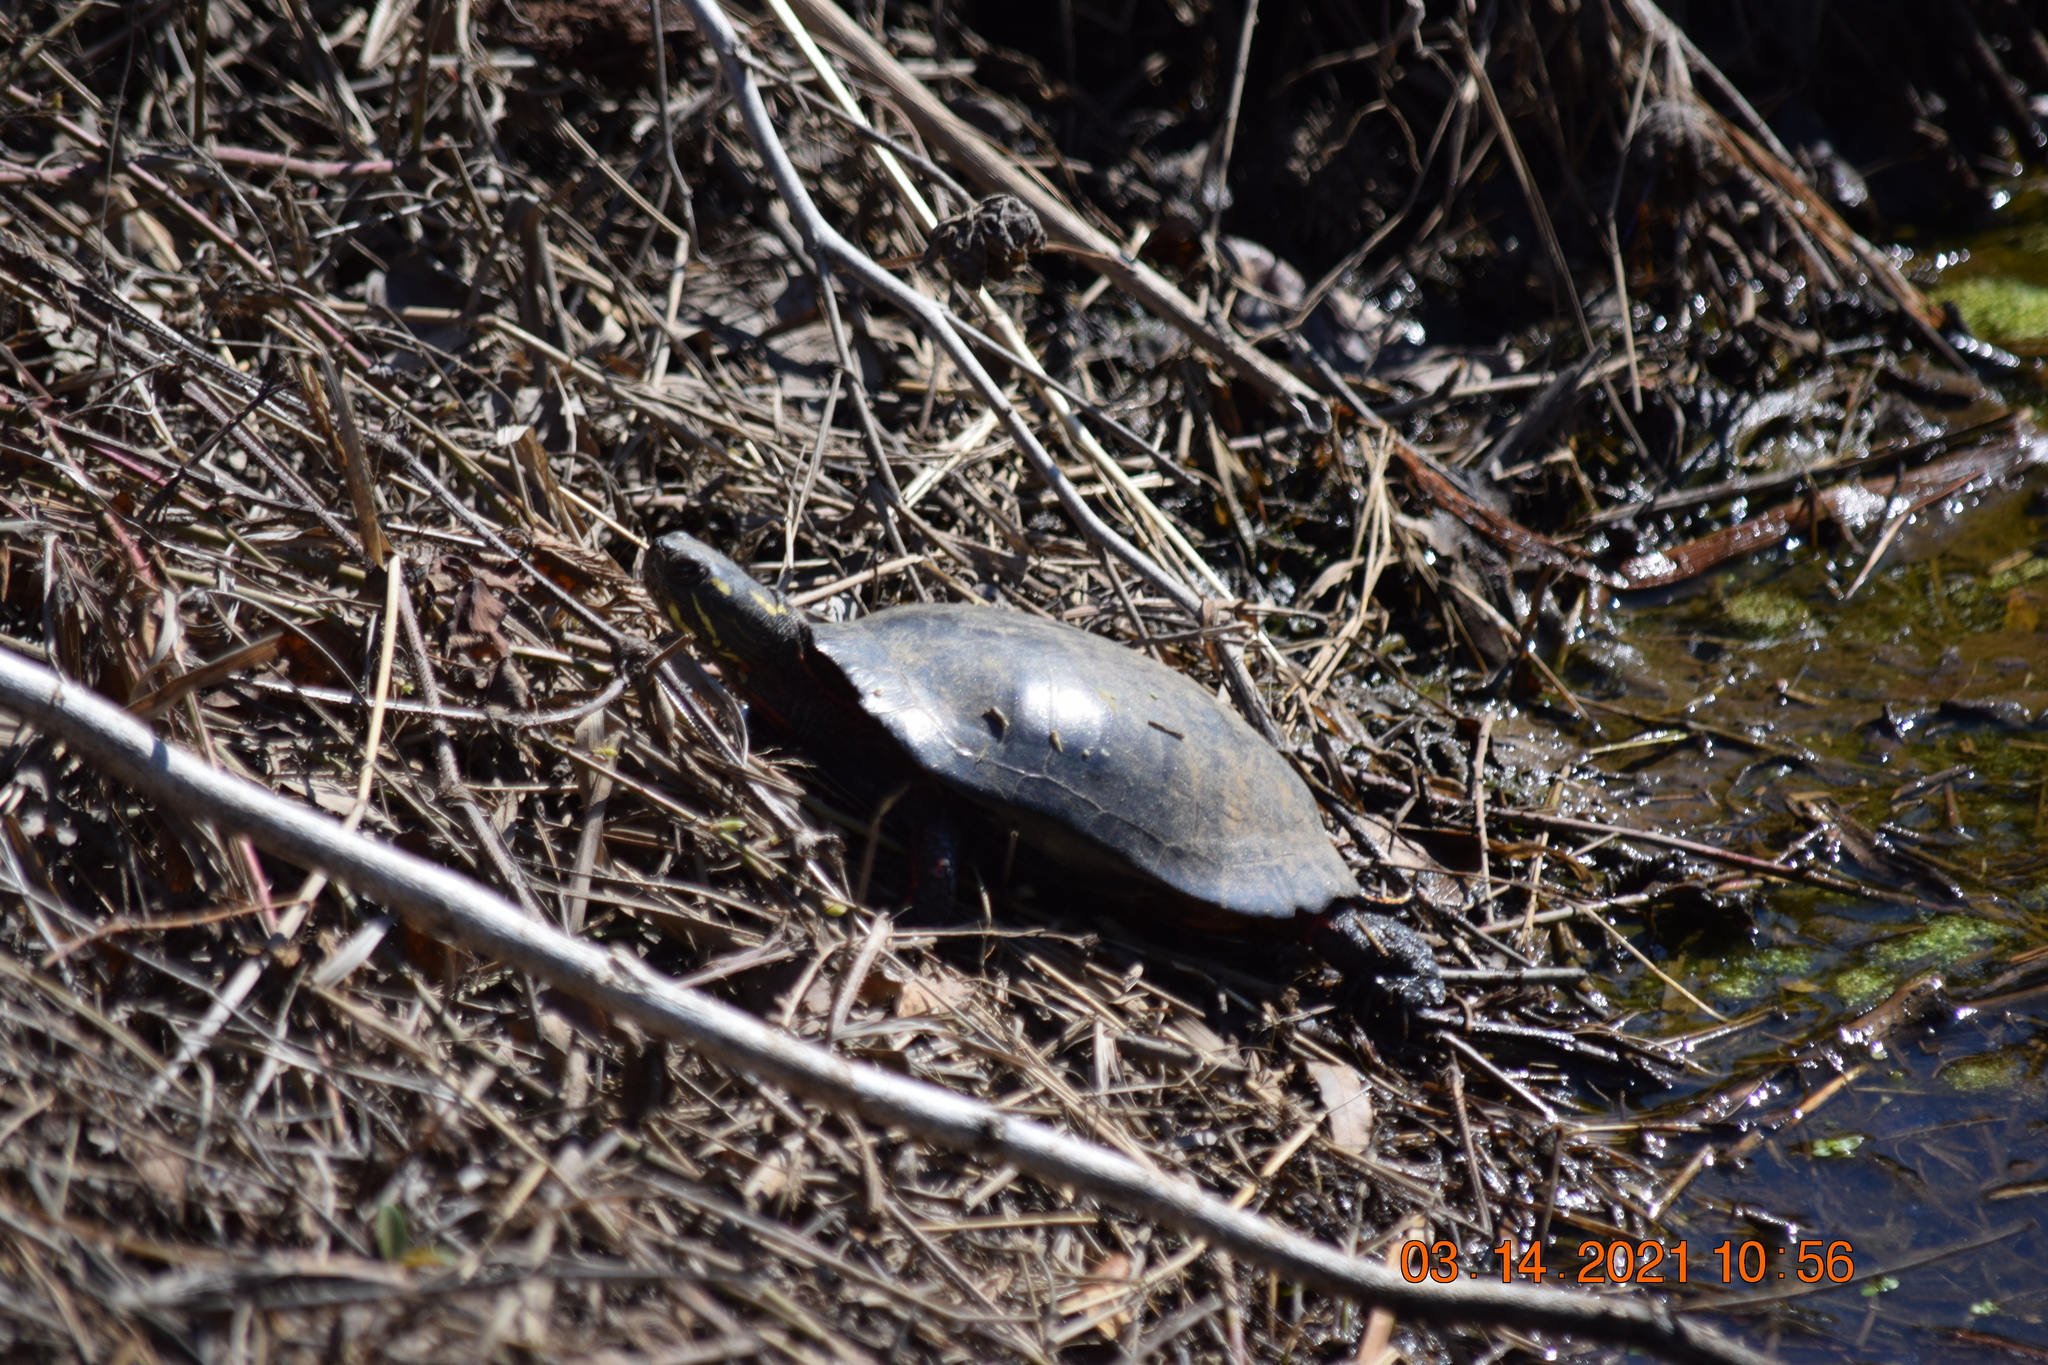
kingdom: Animalia
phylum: Chordata
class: Testudines
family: Emydidae
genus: Chrysemys
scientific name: Chrysemys picta
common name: Painted turtle
